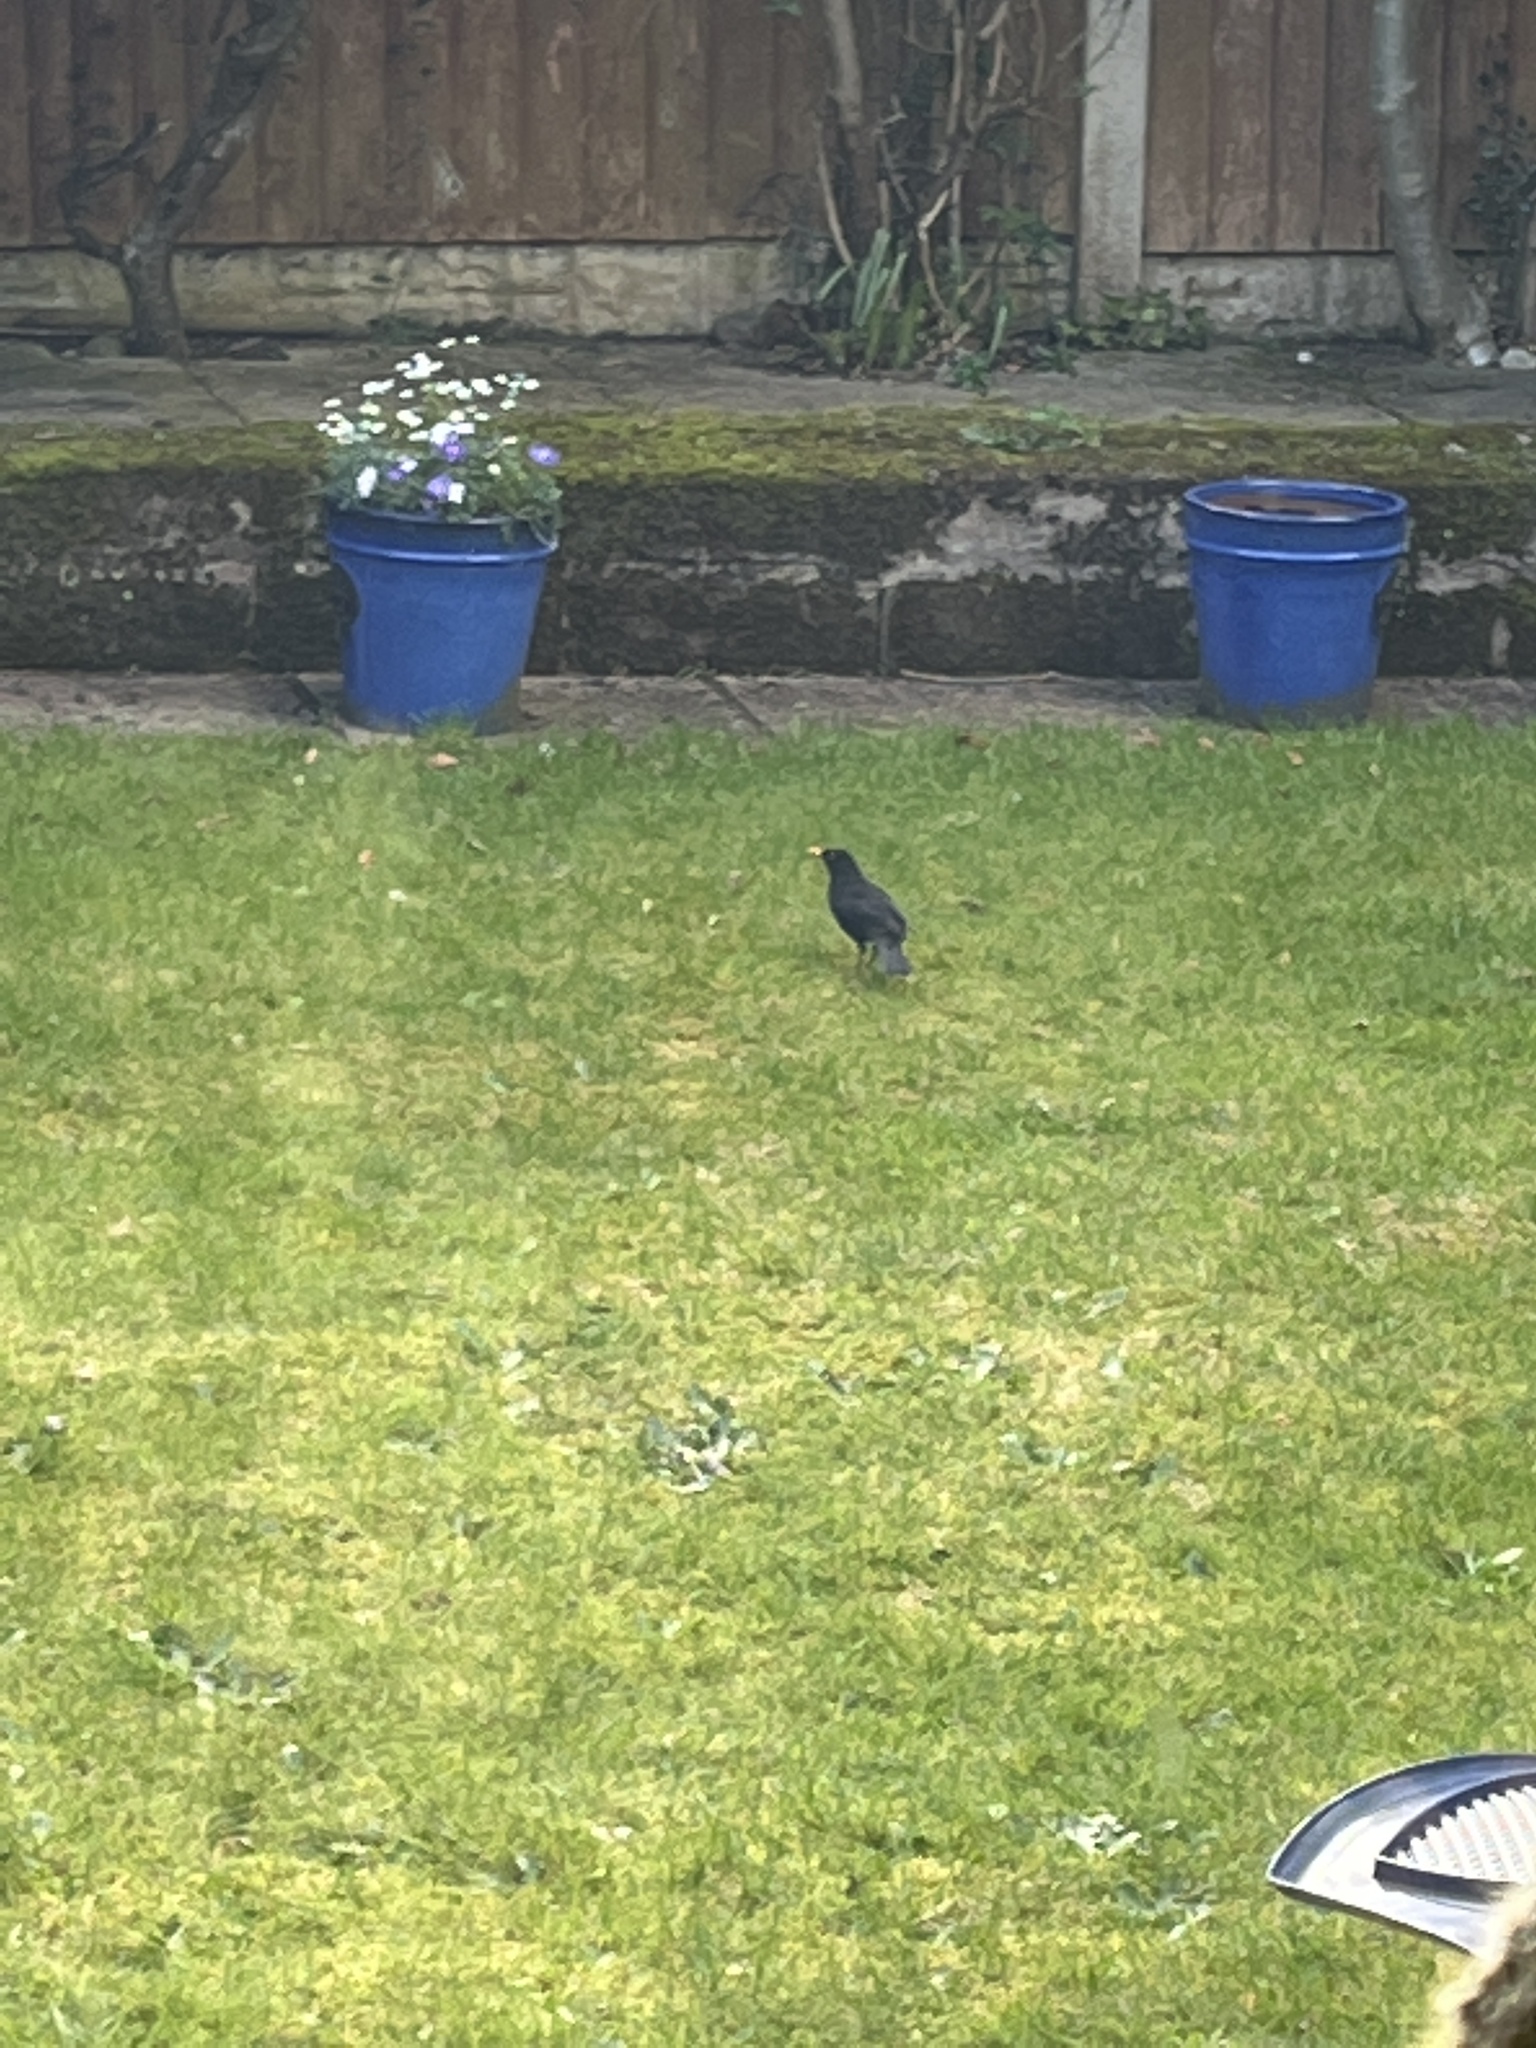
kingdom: Animalia
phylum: Chordata
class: Aves
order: Passeriformes
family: Turdidae
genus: Turdus
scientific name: Turdus merula
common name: Common blackbird
